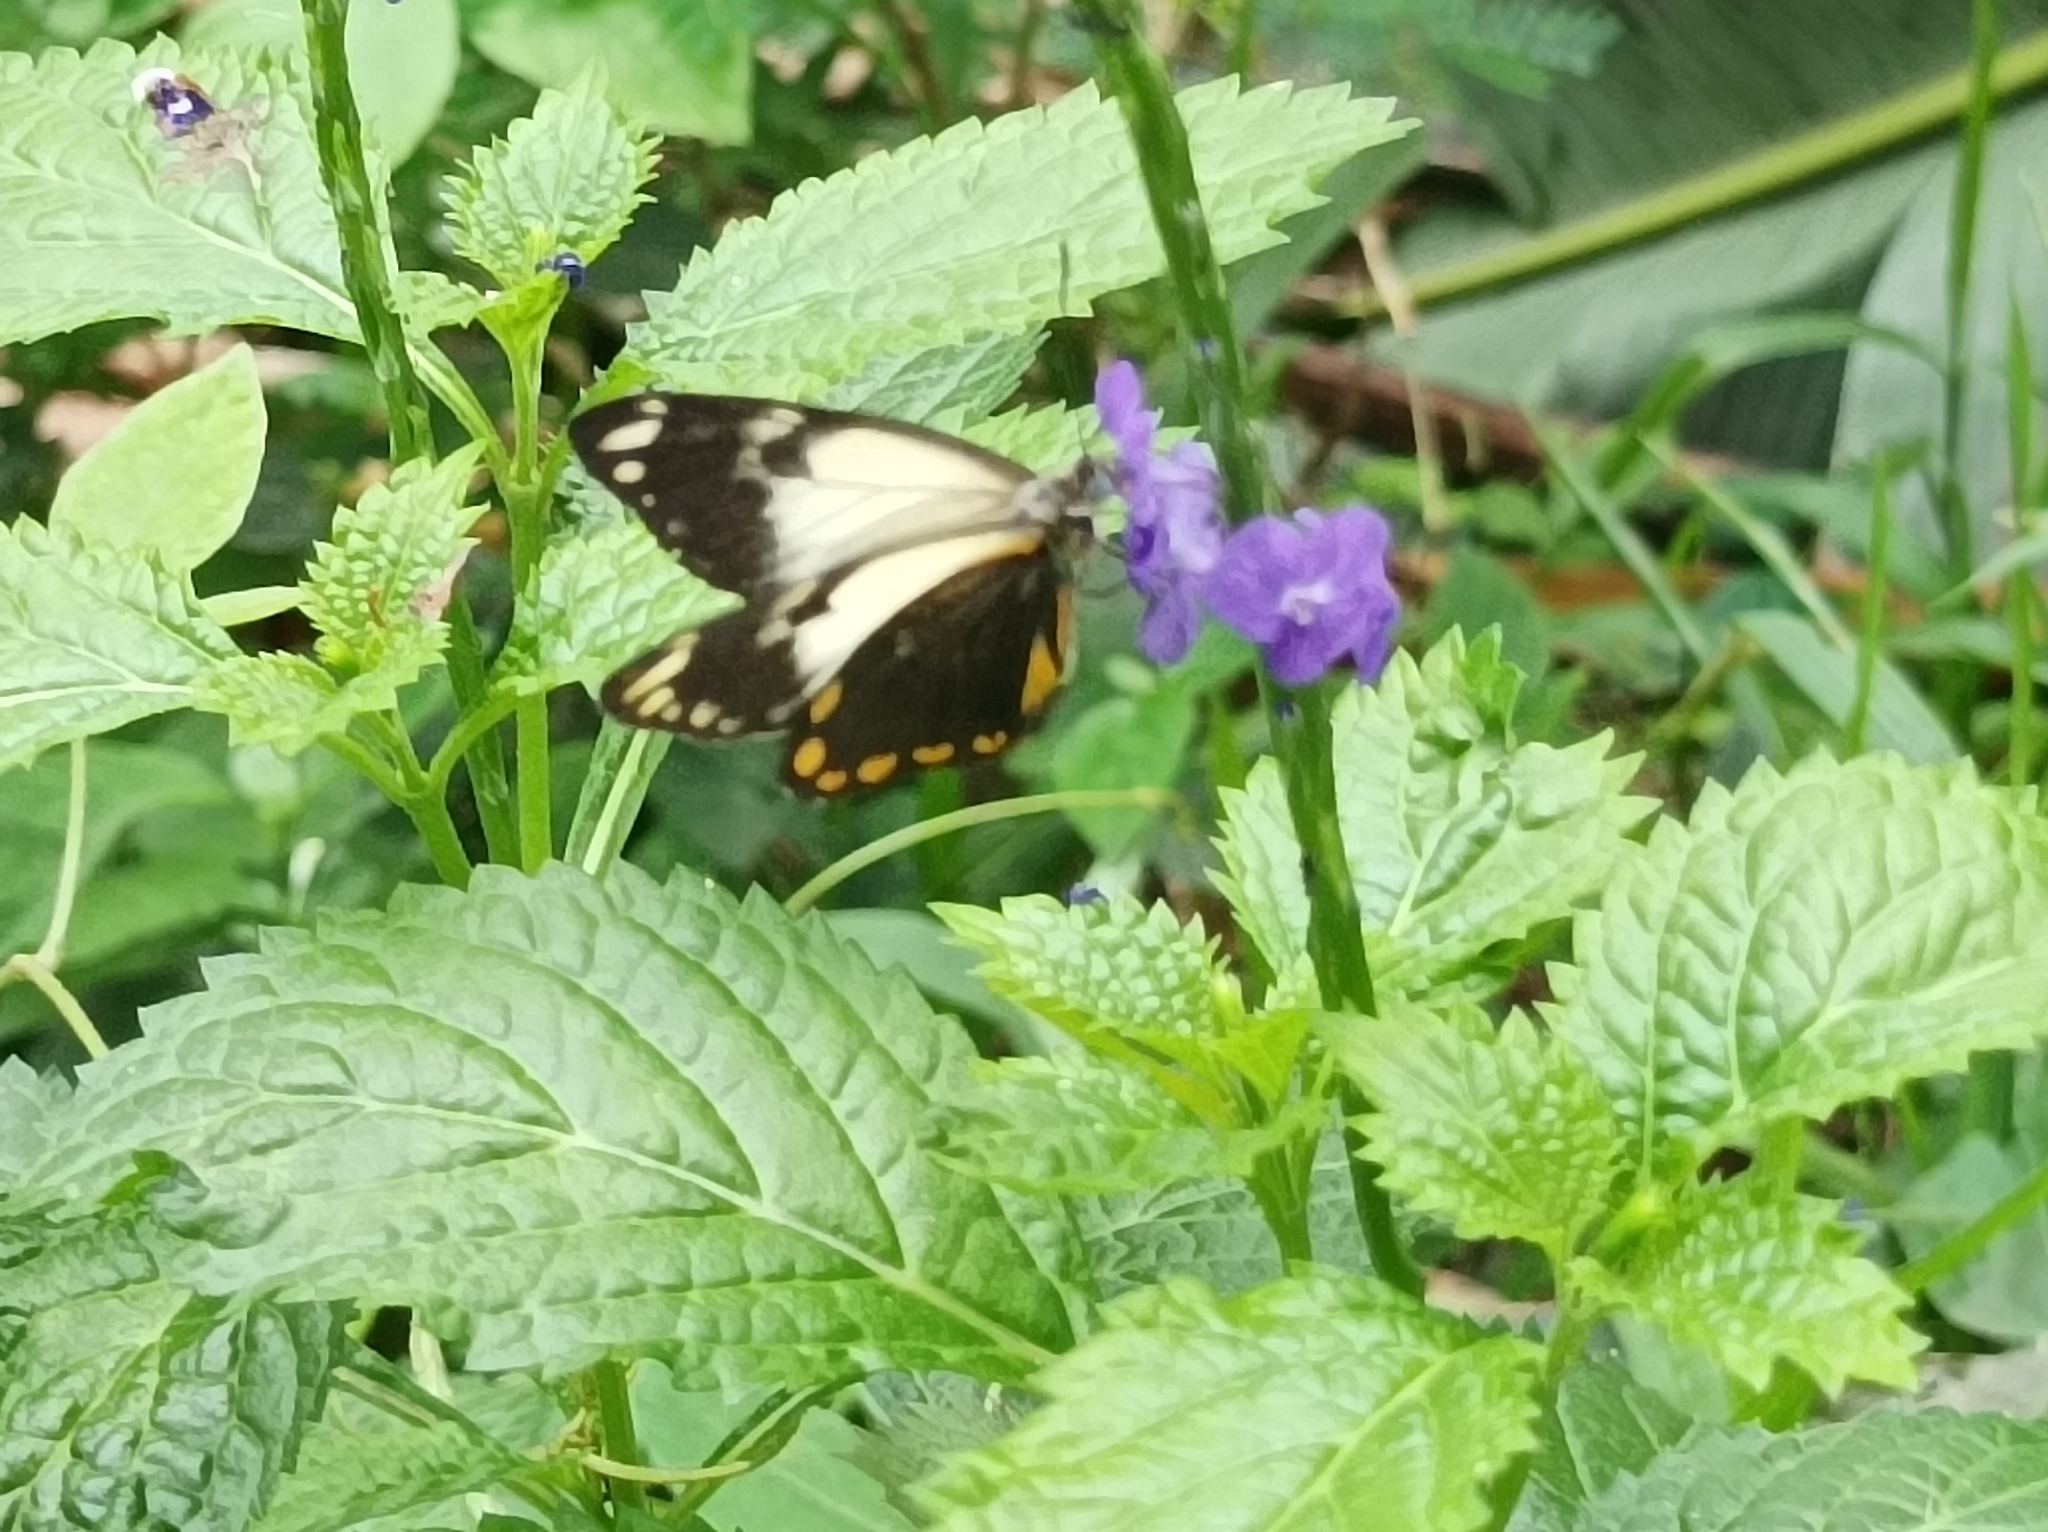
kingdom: Animalia
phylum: Arthropoda
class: Insecta
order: Lepidoptera
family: Pieridae
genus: Belenois
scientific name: Belenois java
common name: Caper white
